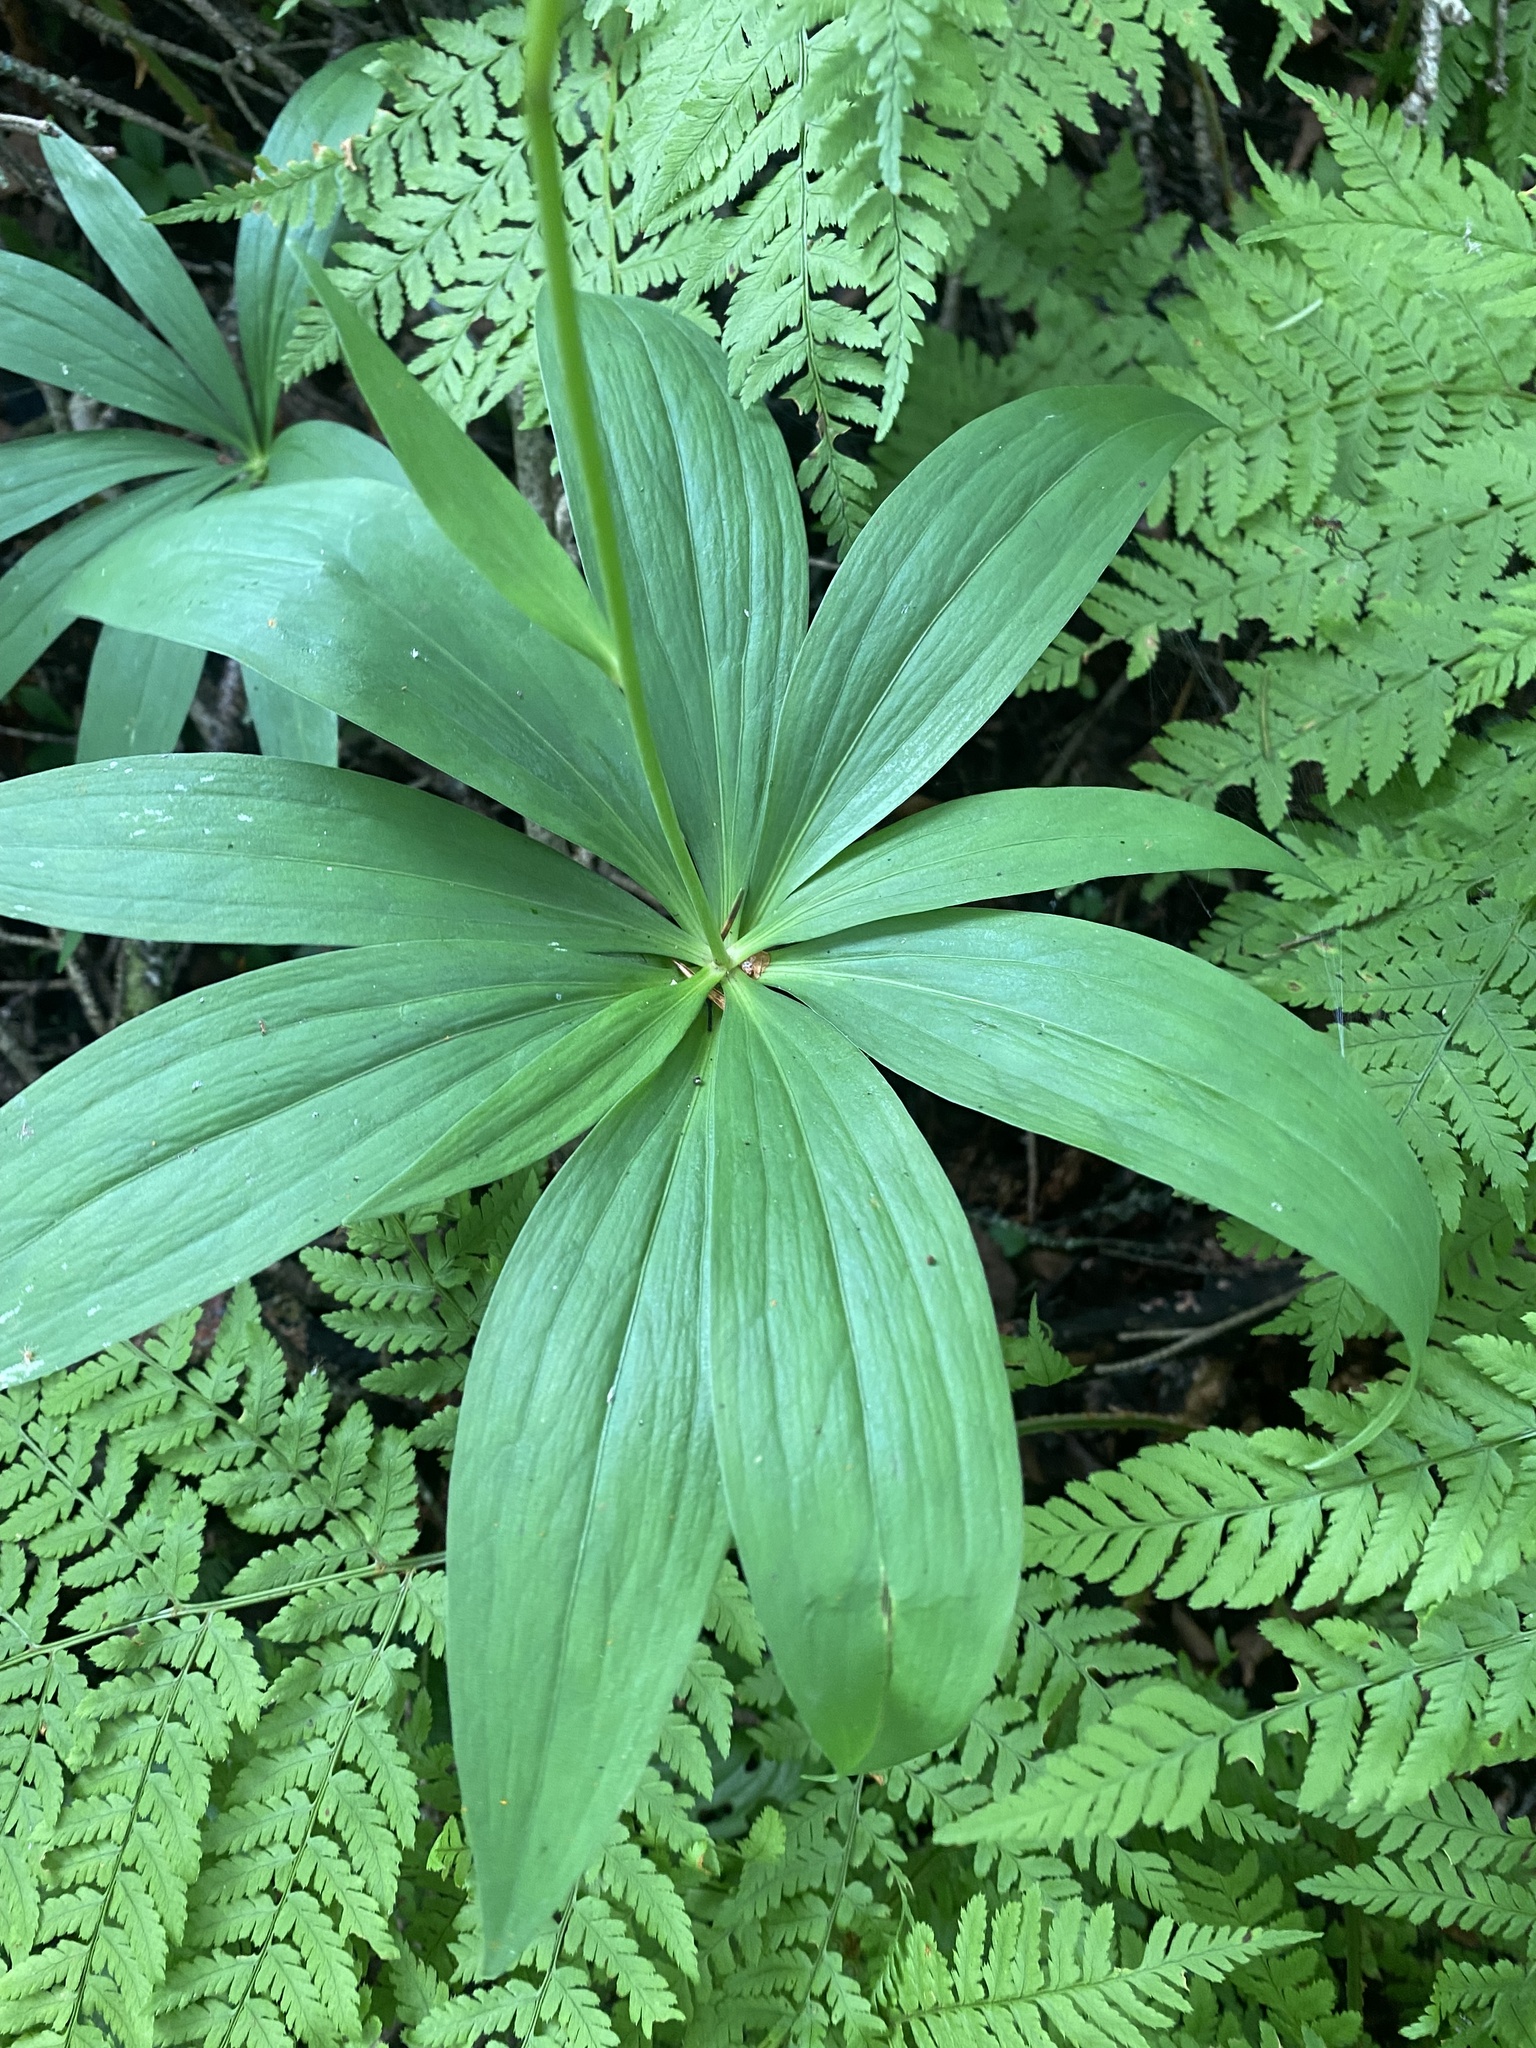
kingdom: Plantae
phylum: Tracheophyta
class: Liliopsida
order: Liliales
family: Liliaceae
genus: Lilium
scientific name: Lilium debile
